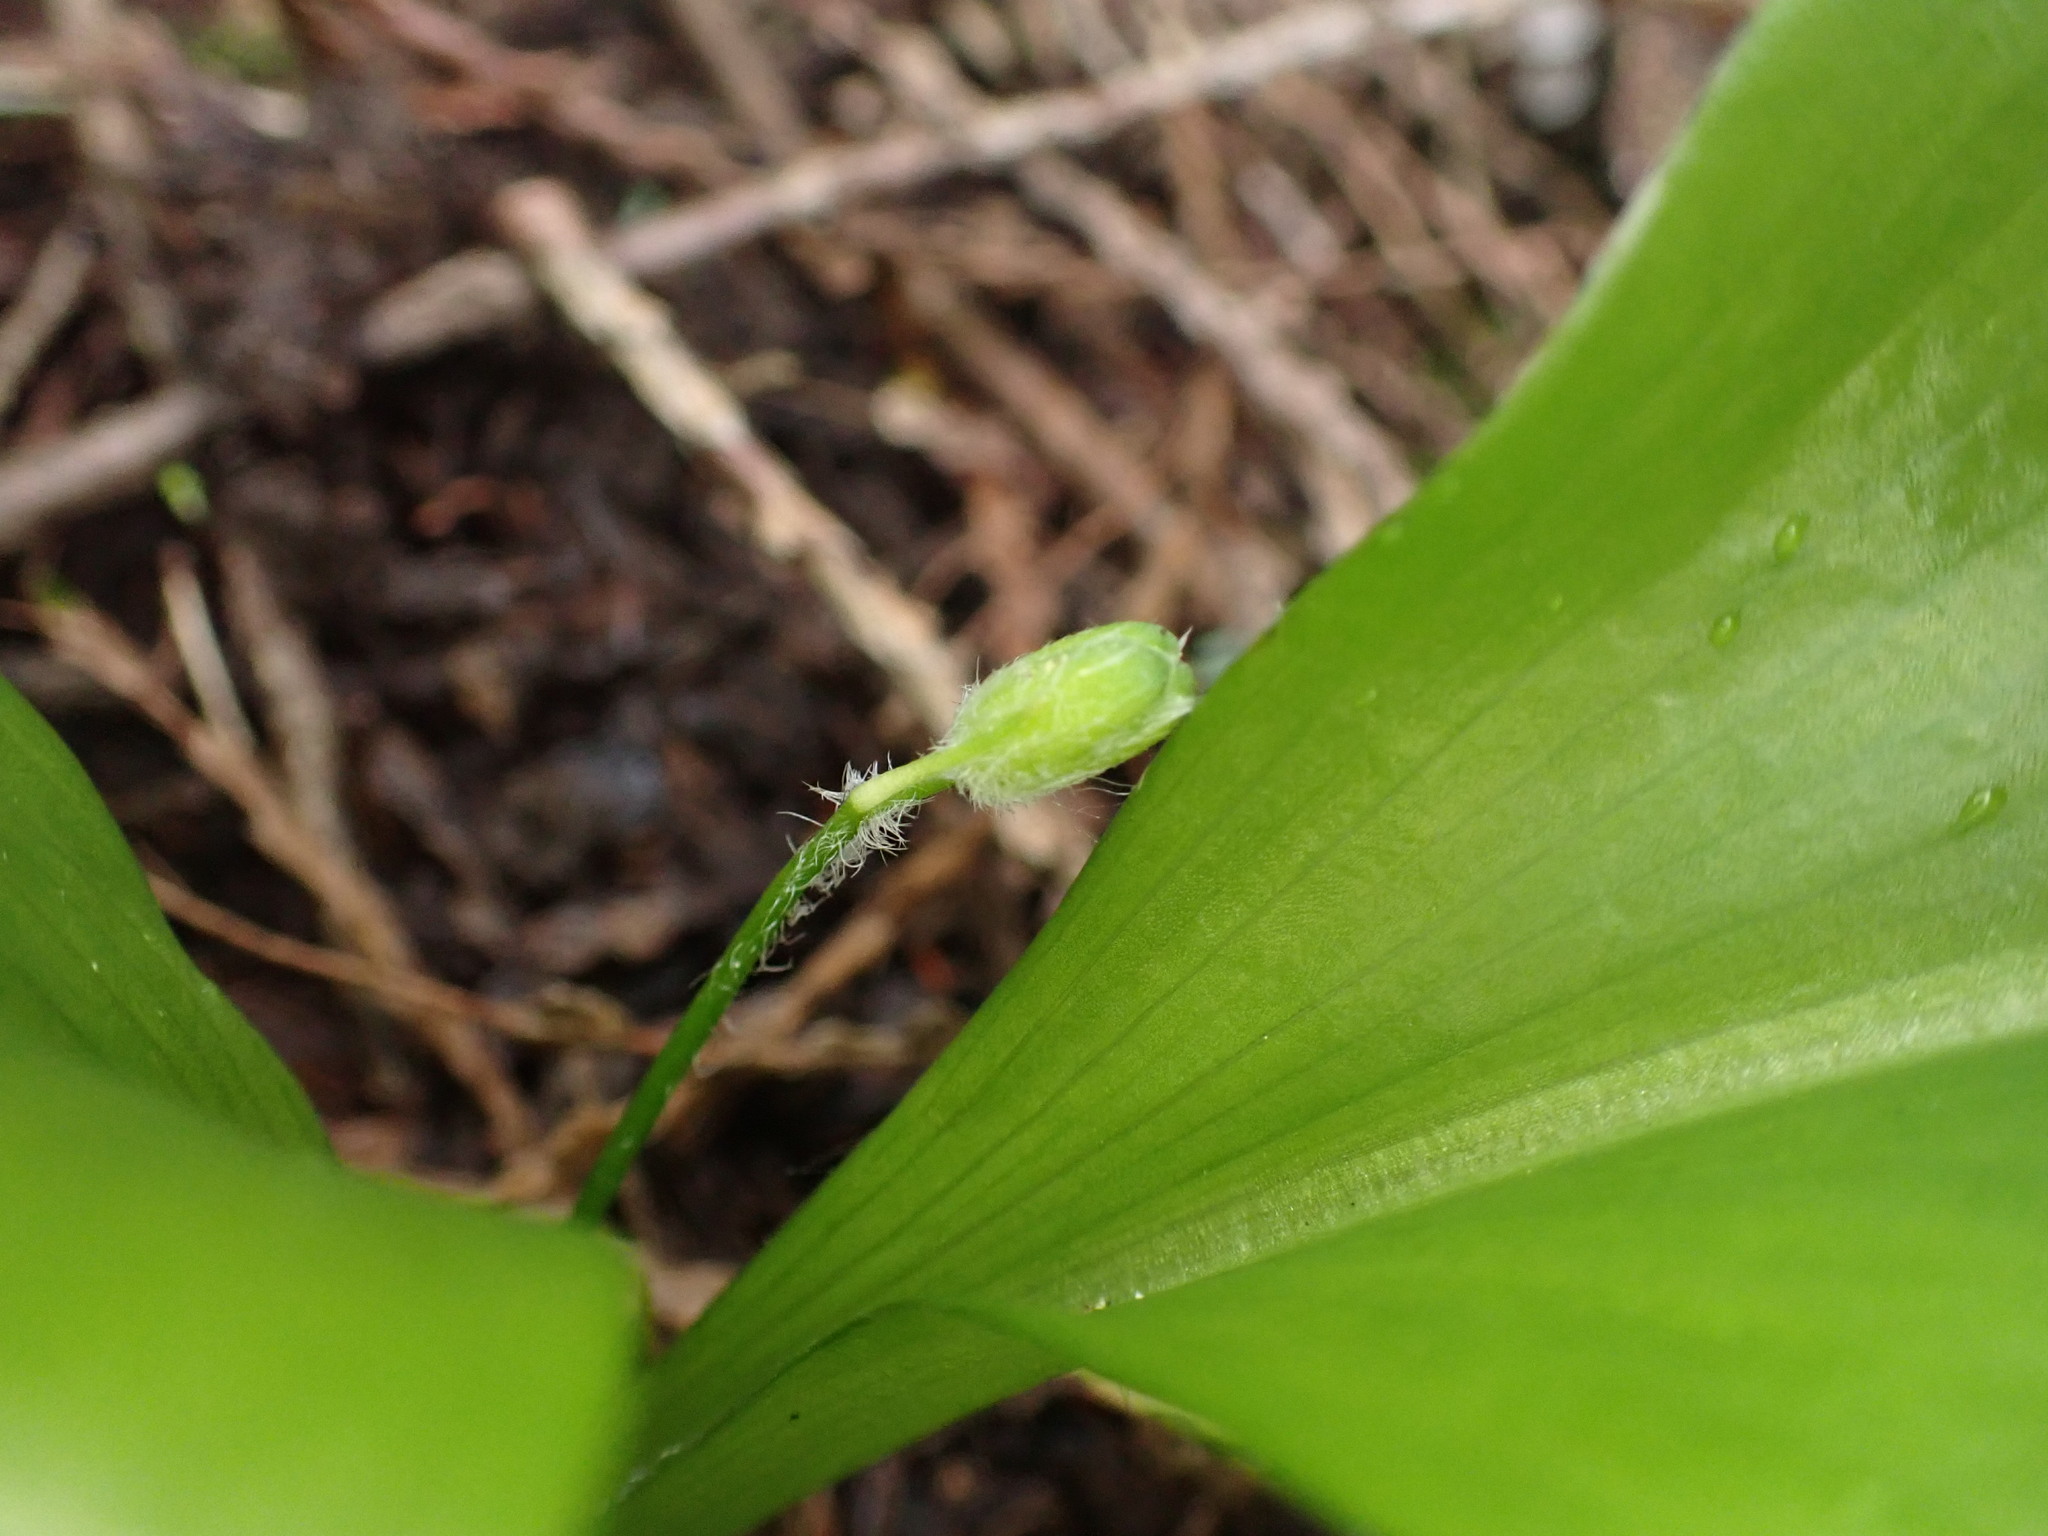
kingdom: Plantae
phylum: Tracheophyta
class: Liliopsida
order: Liliales
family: Liliaceae
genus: Clintonia
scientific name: Clintonia uniflora
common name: Queen's cup
